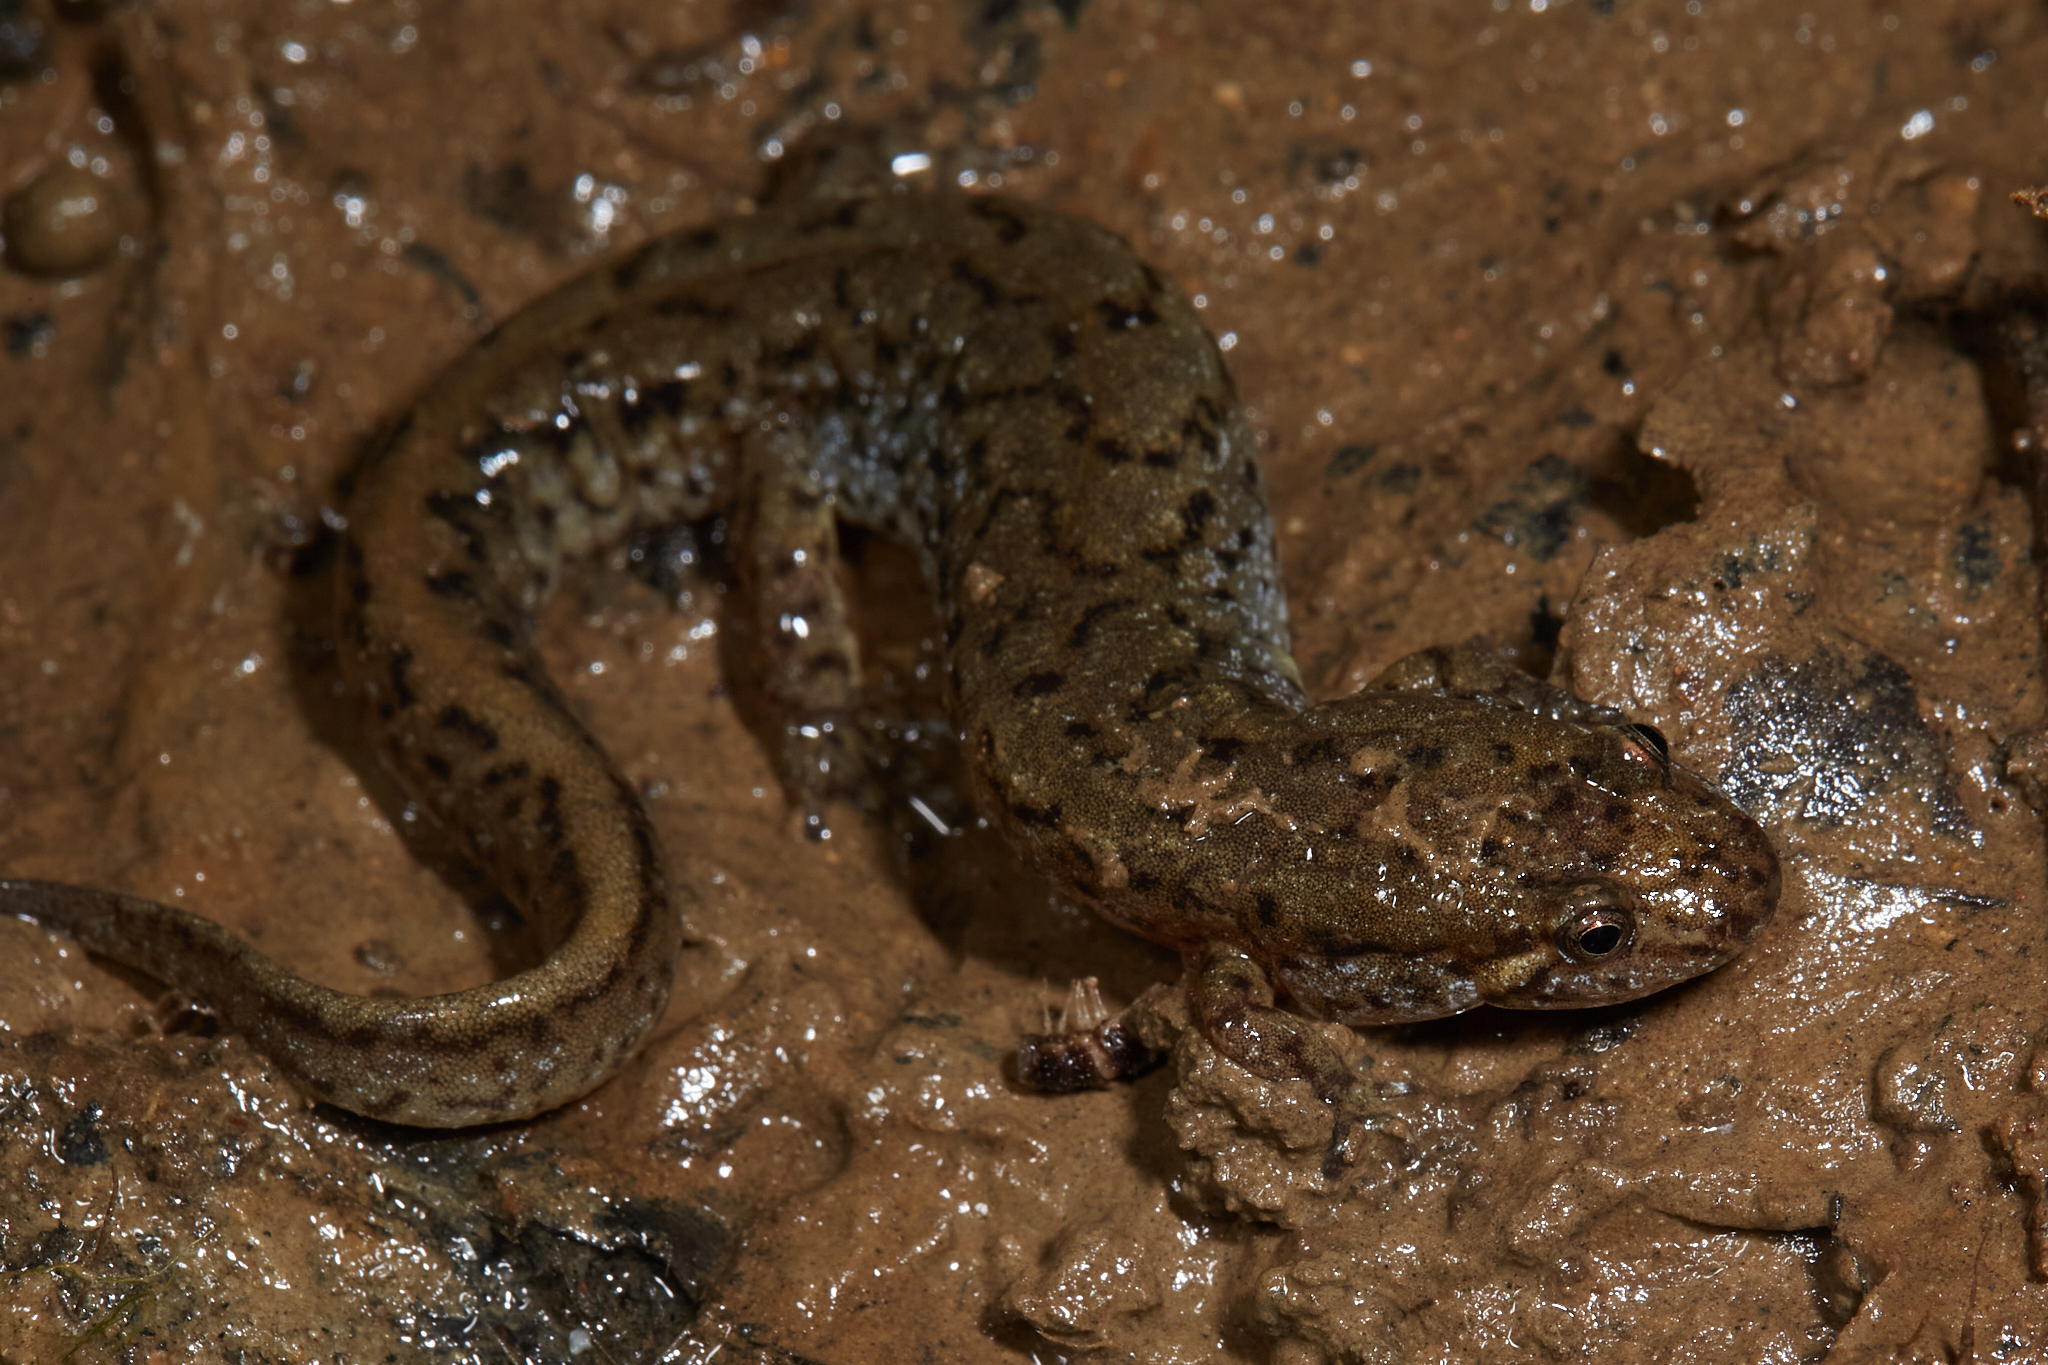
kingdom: Animalia
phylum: Chordata
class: Amphibia
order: Caudata
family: Plethodontidae
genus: Desmognathus
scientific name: Desmognathus fuscus
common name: Northern dusky salamander
